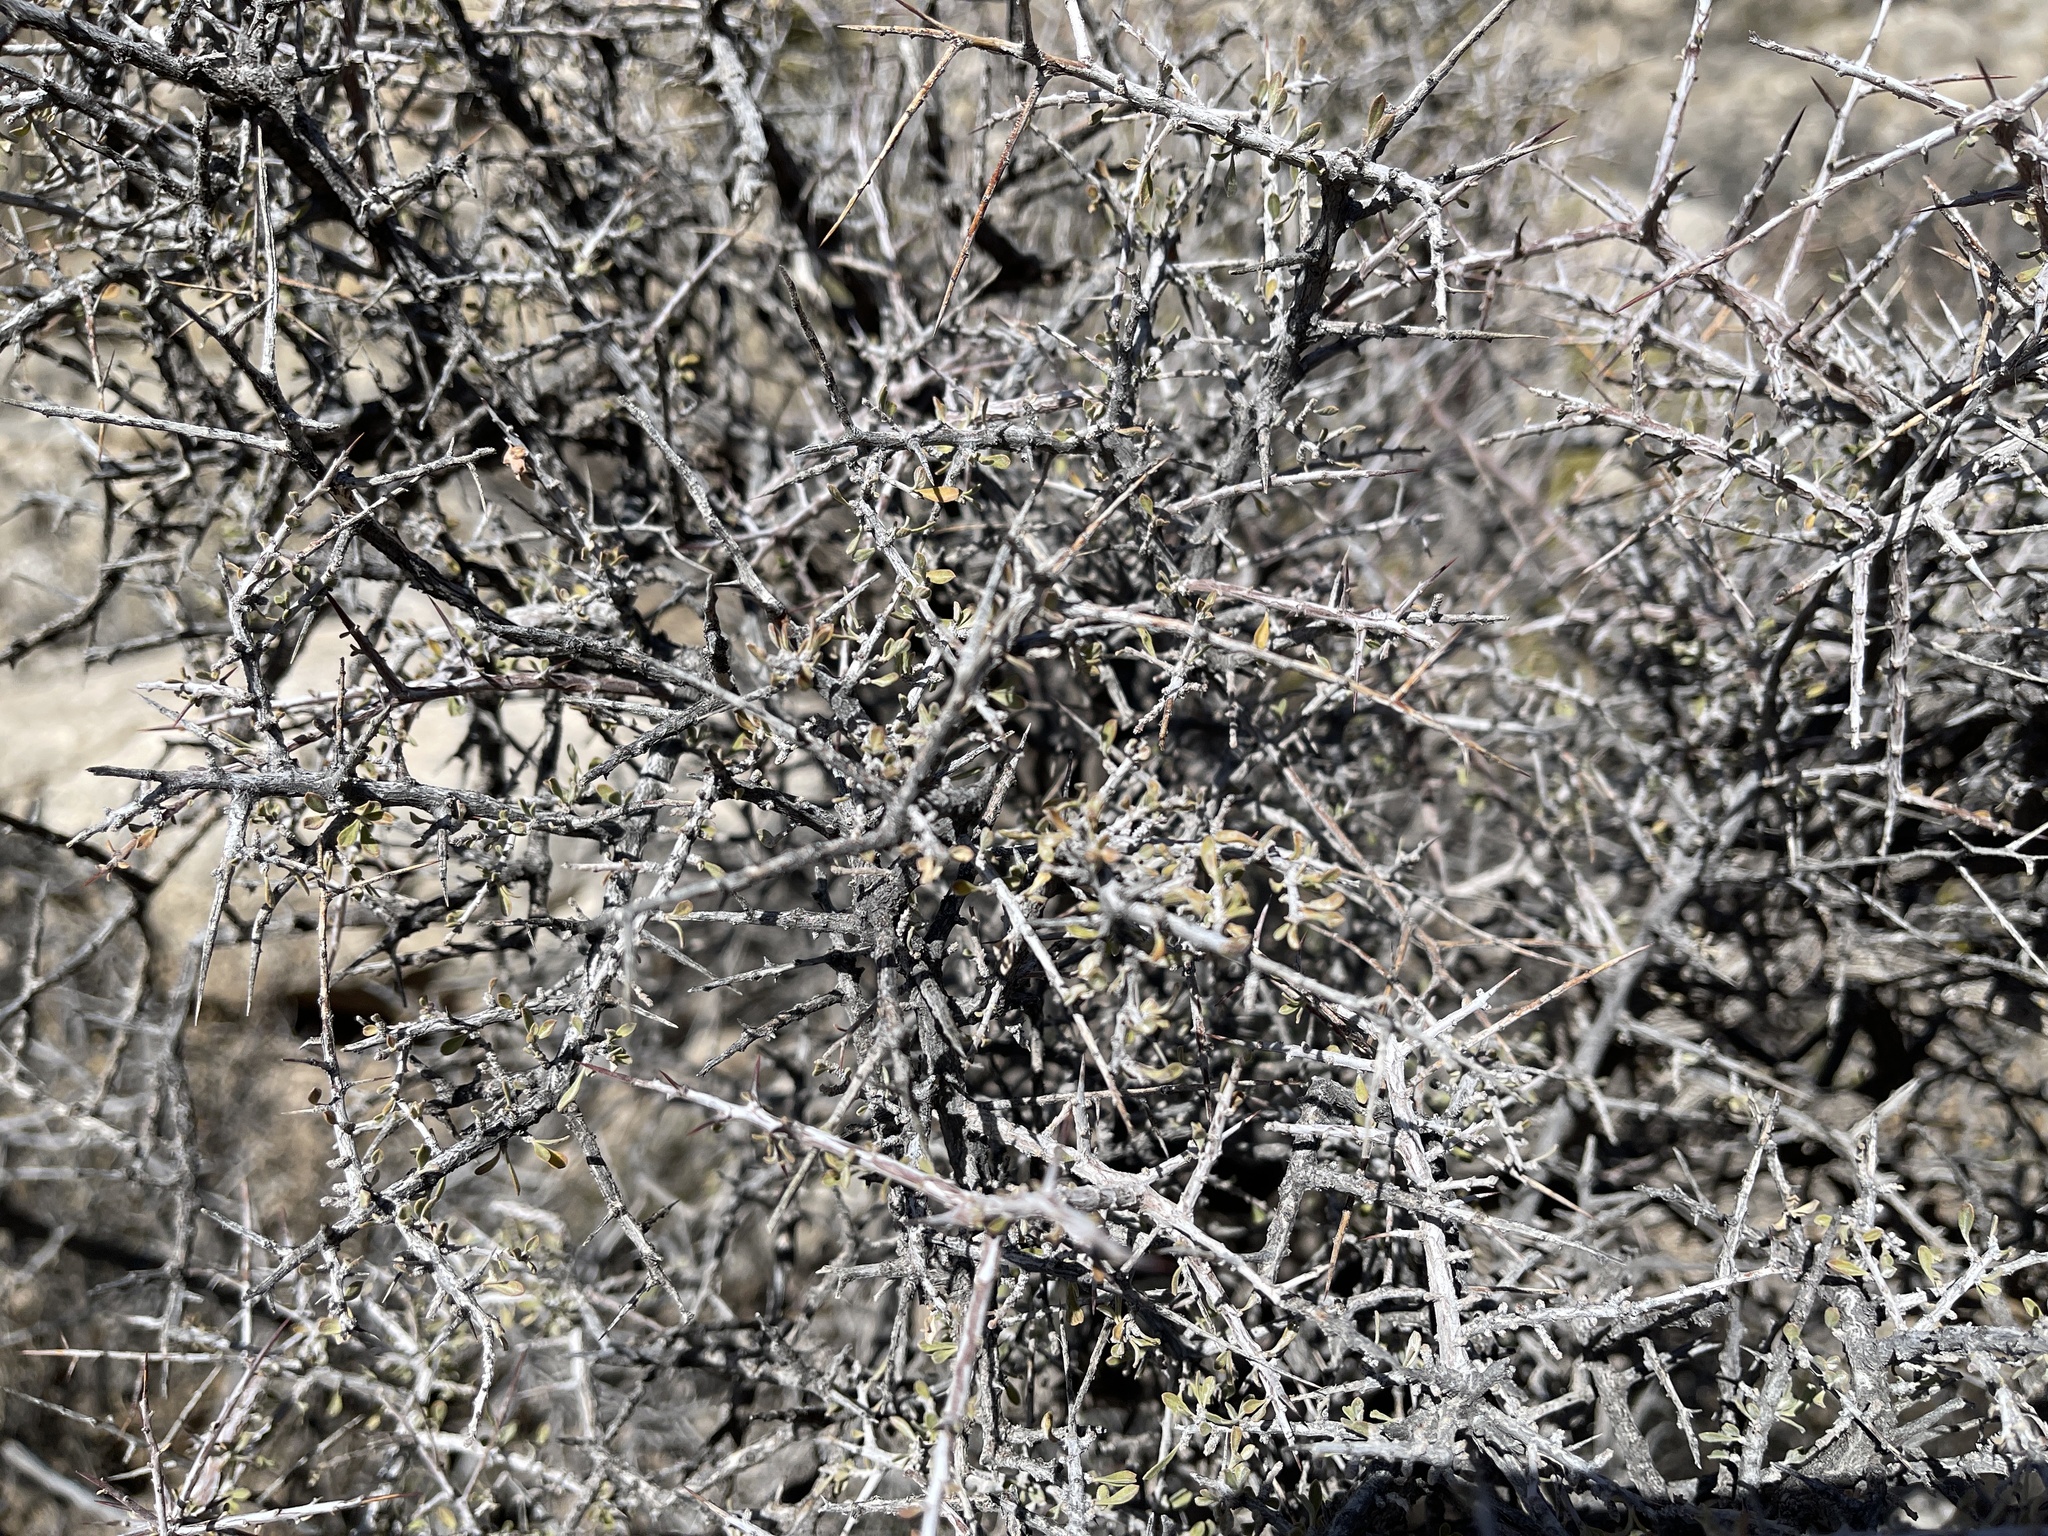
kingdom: Plantae
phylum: Tracheophyta
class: Magnoliopsida
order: Sapindales
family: Anacardiaceae
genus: Rhus
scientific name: Rhus microphylla
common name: Desert sumac
